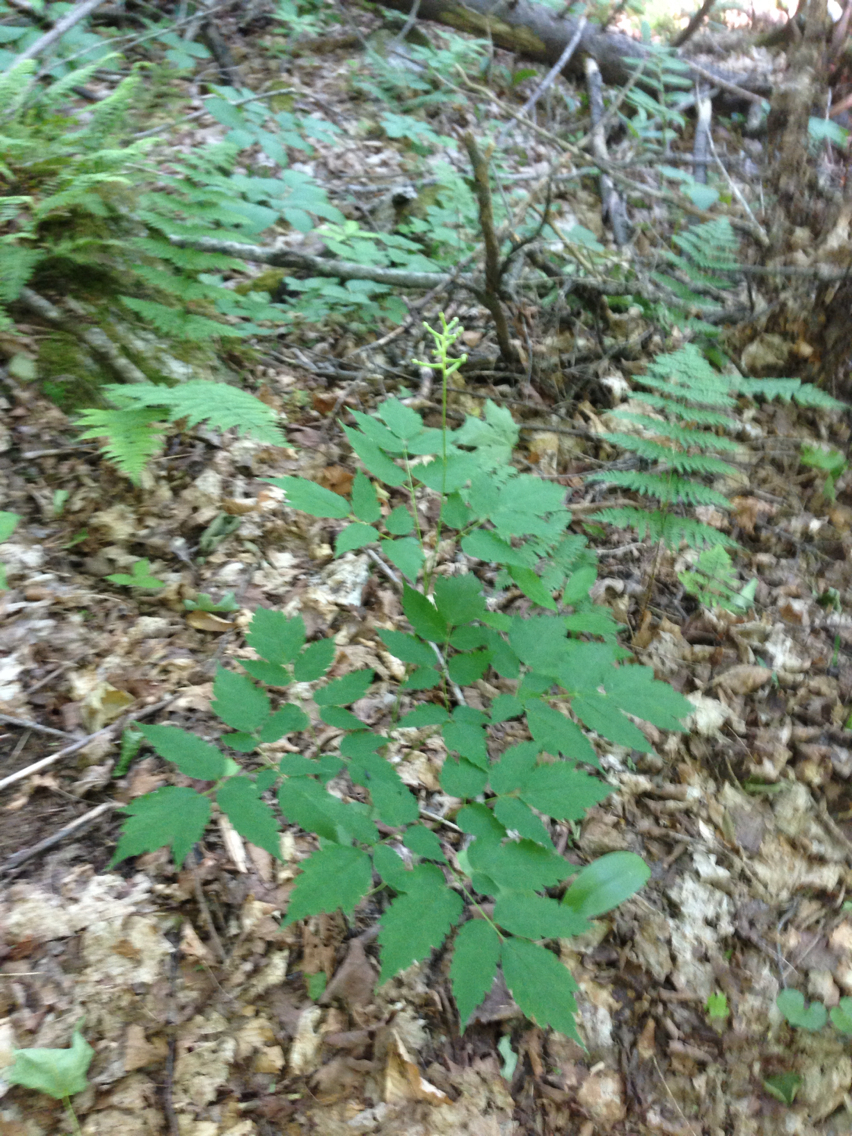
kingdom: Plantae
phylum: Tracheophyta
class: Magnoliopsida
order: Ranunculales
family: Ranunculaceae
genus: Actaea
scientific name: Actaea pachypoda
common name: Doll's-eyes
